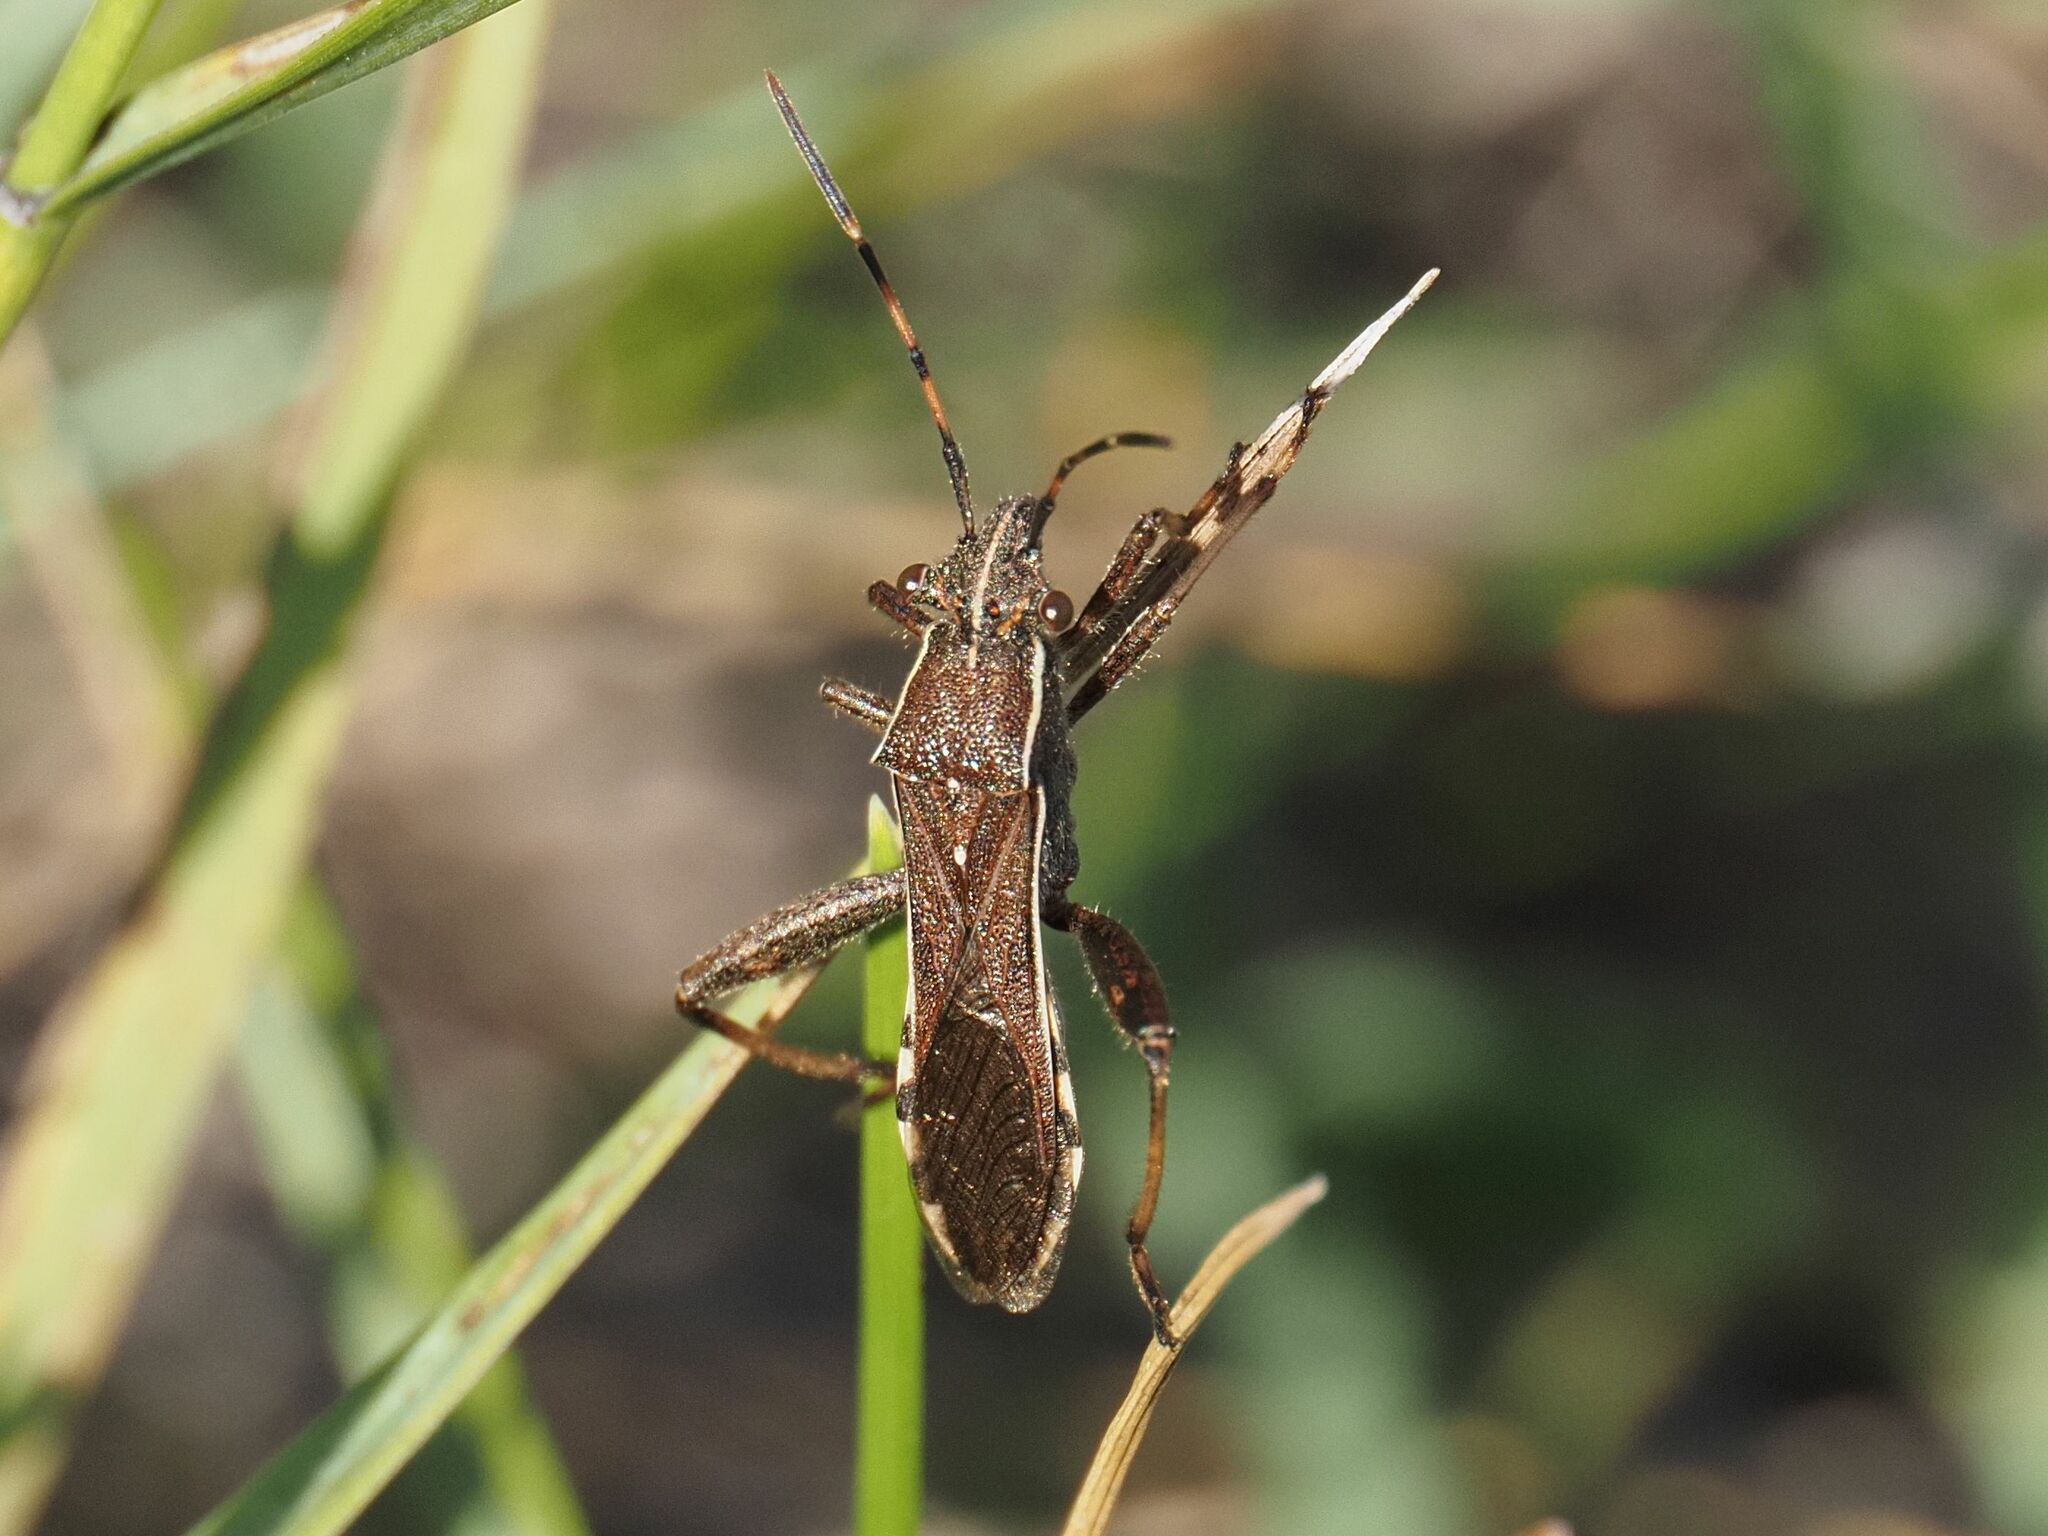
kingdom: Animalia
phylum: Arthropoda
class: Insecta
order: Hemiptera
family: Alydidae
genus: Camptopus
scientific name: Camptopus lateralis
